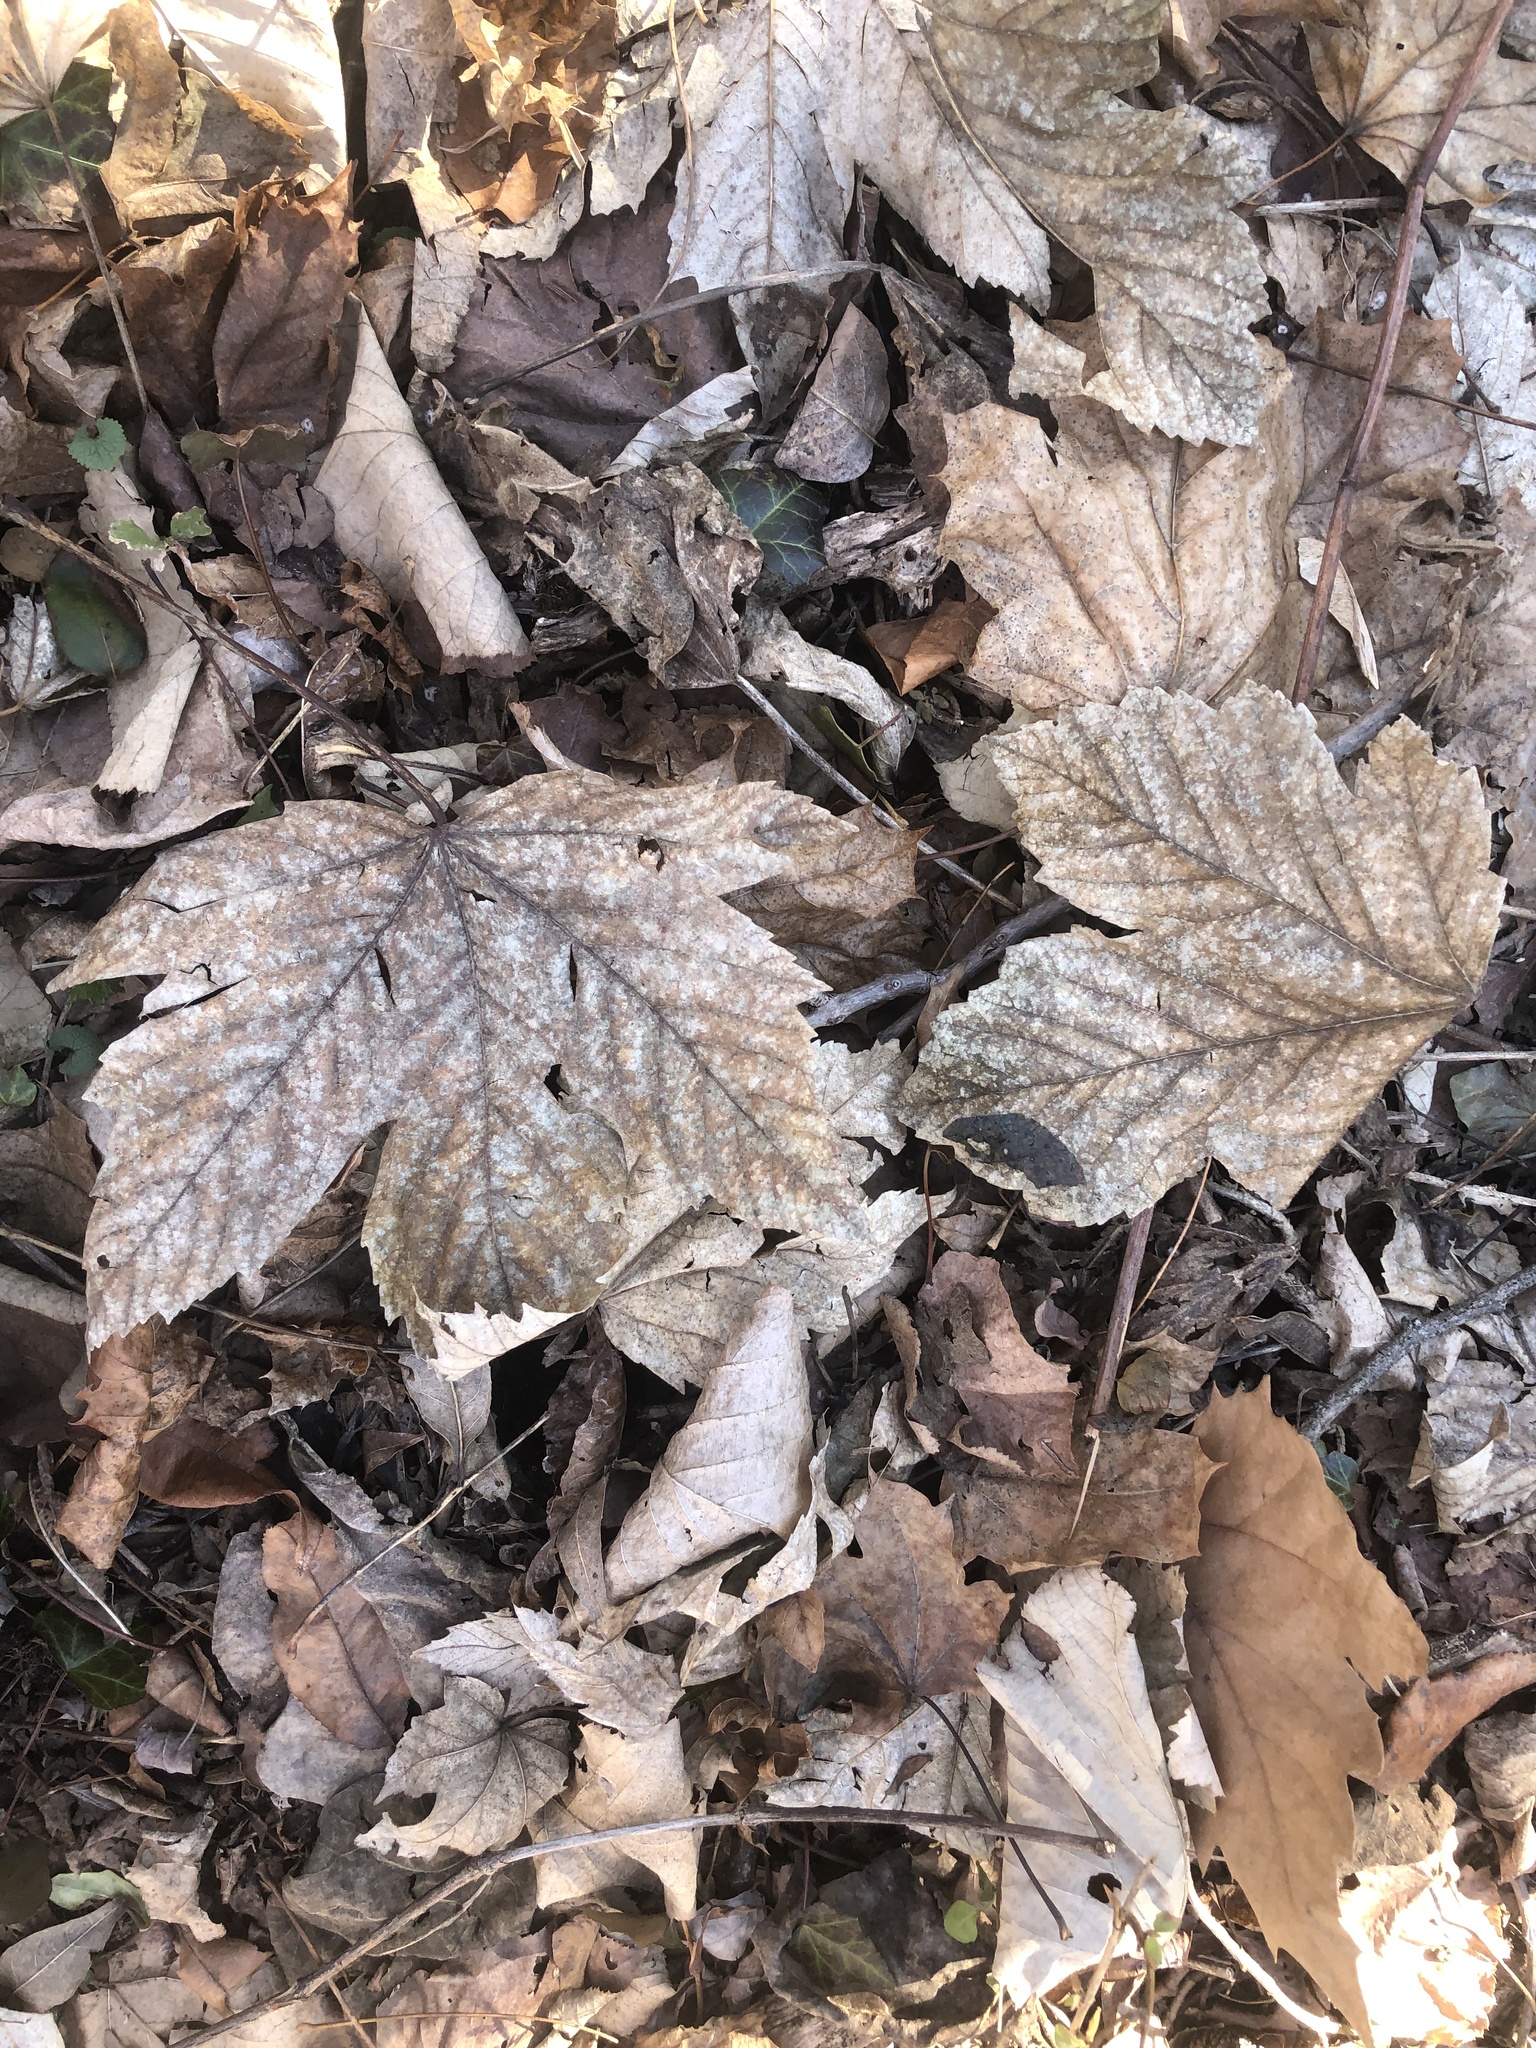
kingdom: Plantae
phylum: Tracheophyta
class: Magnoliopsida
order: Sapindales
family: Sapindaceae
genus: Acer
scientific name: Acer pseudoplatanus
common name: Sycamore
